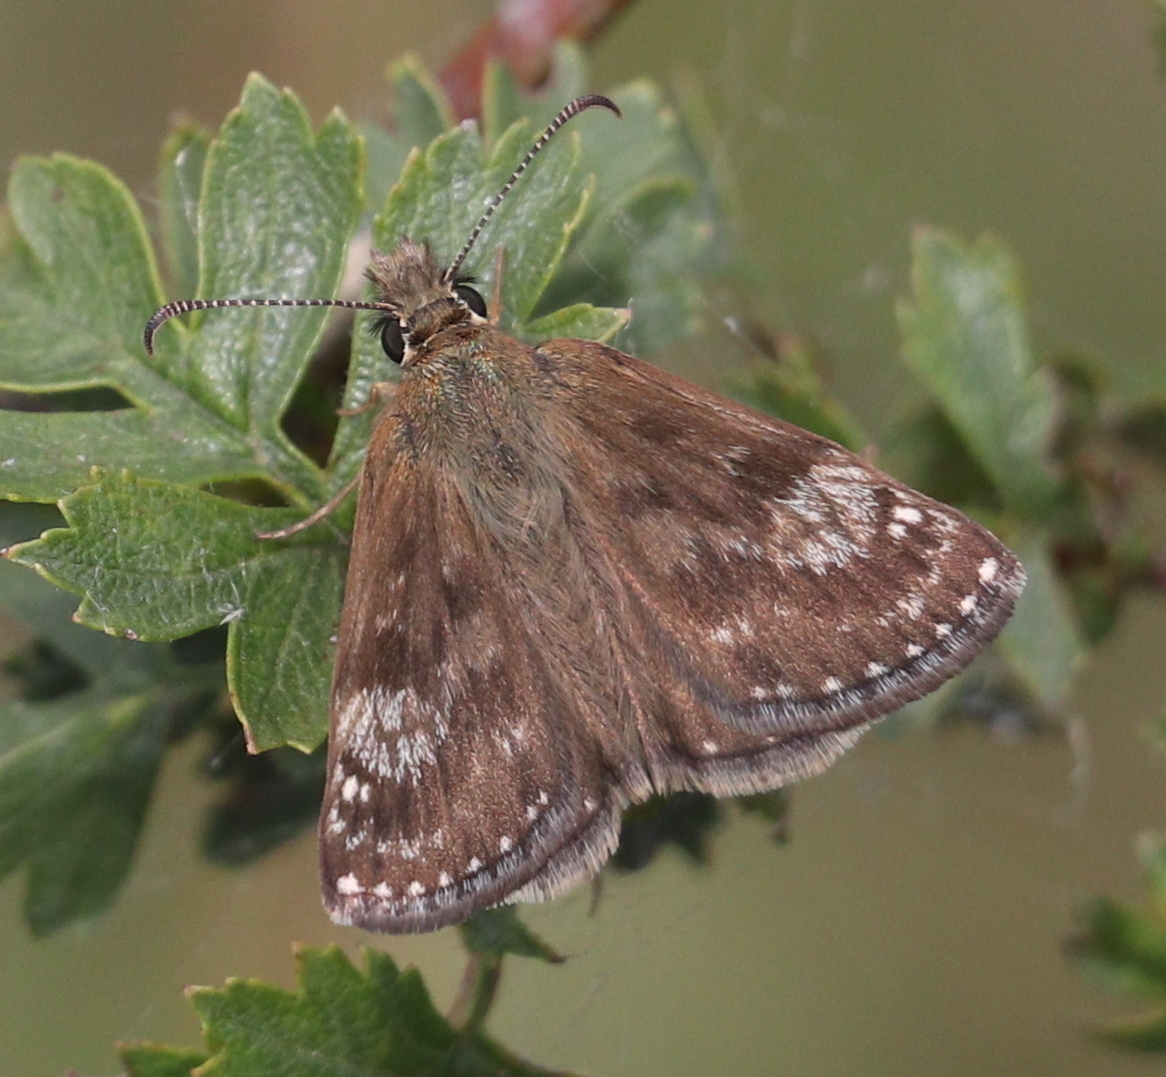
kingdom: Animalia
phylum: Arthropoda
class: Insecta
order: Lepidoptera
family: Hesperiidae
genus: Erynnis
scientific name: Erynnis tages
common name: Dingy skipper
